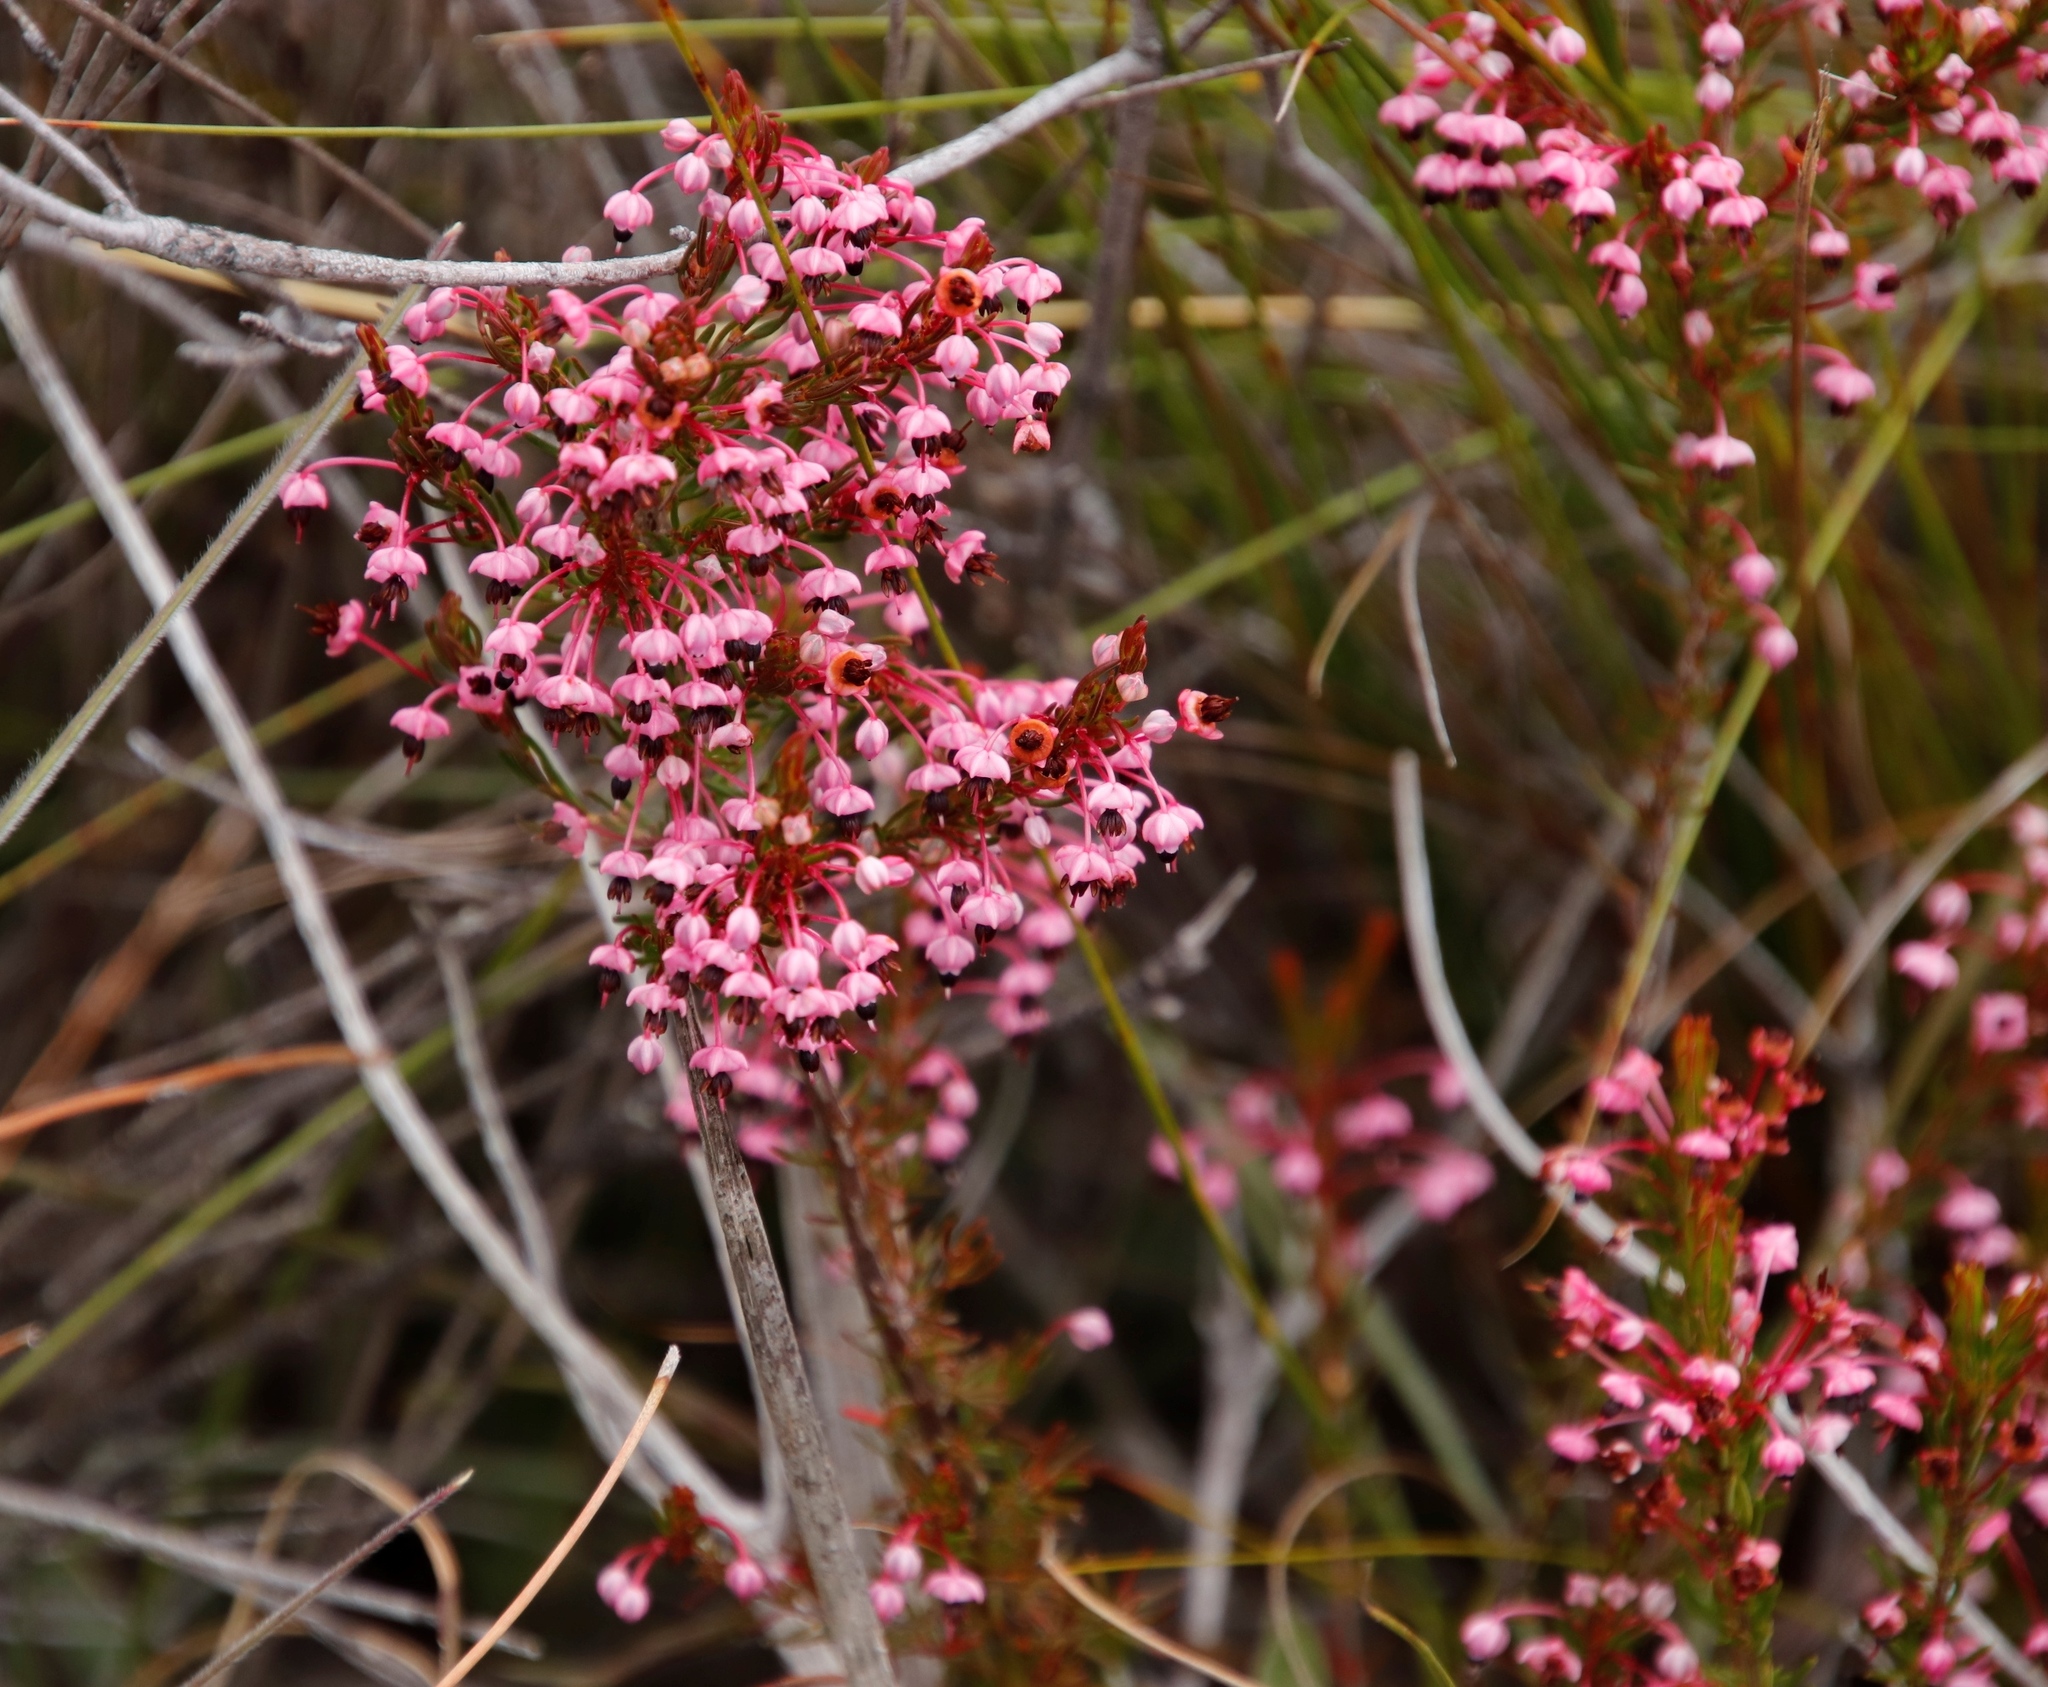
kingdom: Plantae
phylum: Tracheophyta
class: Magnoliopsida
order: Ericales
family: Ericaceae
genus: Erica
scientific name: Erica rubiginosa
